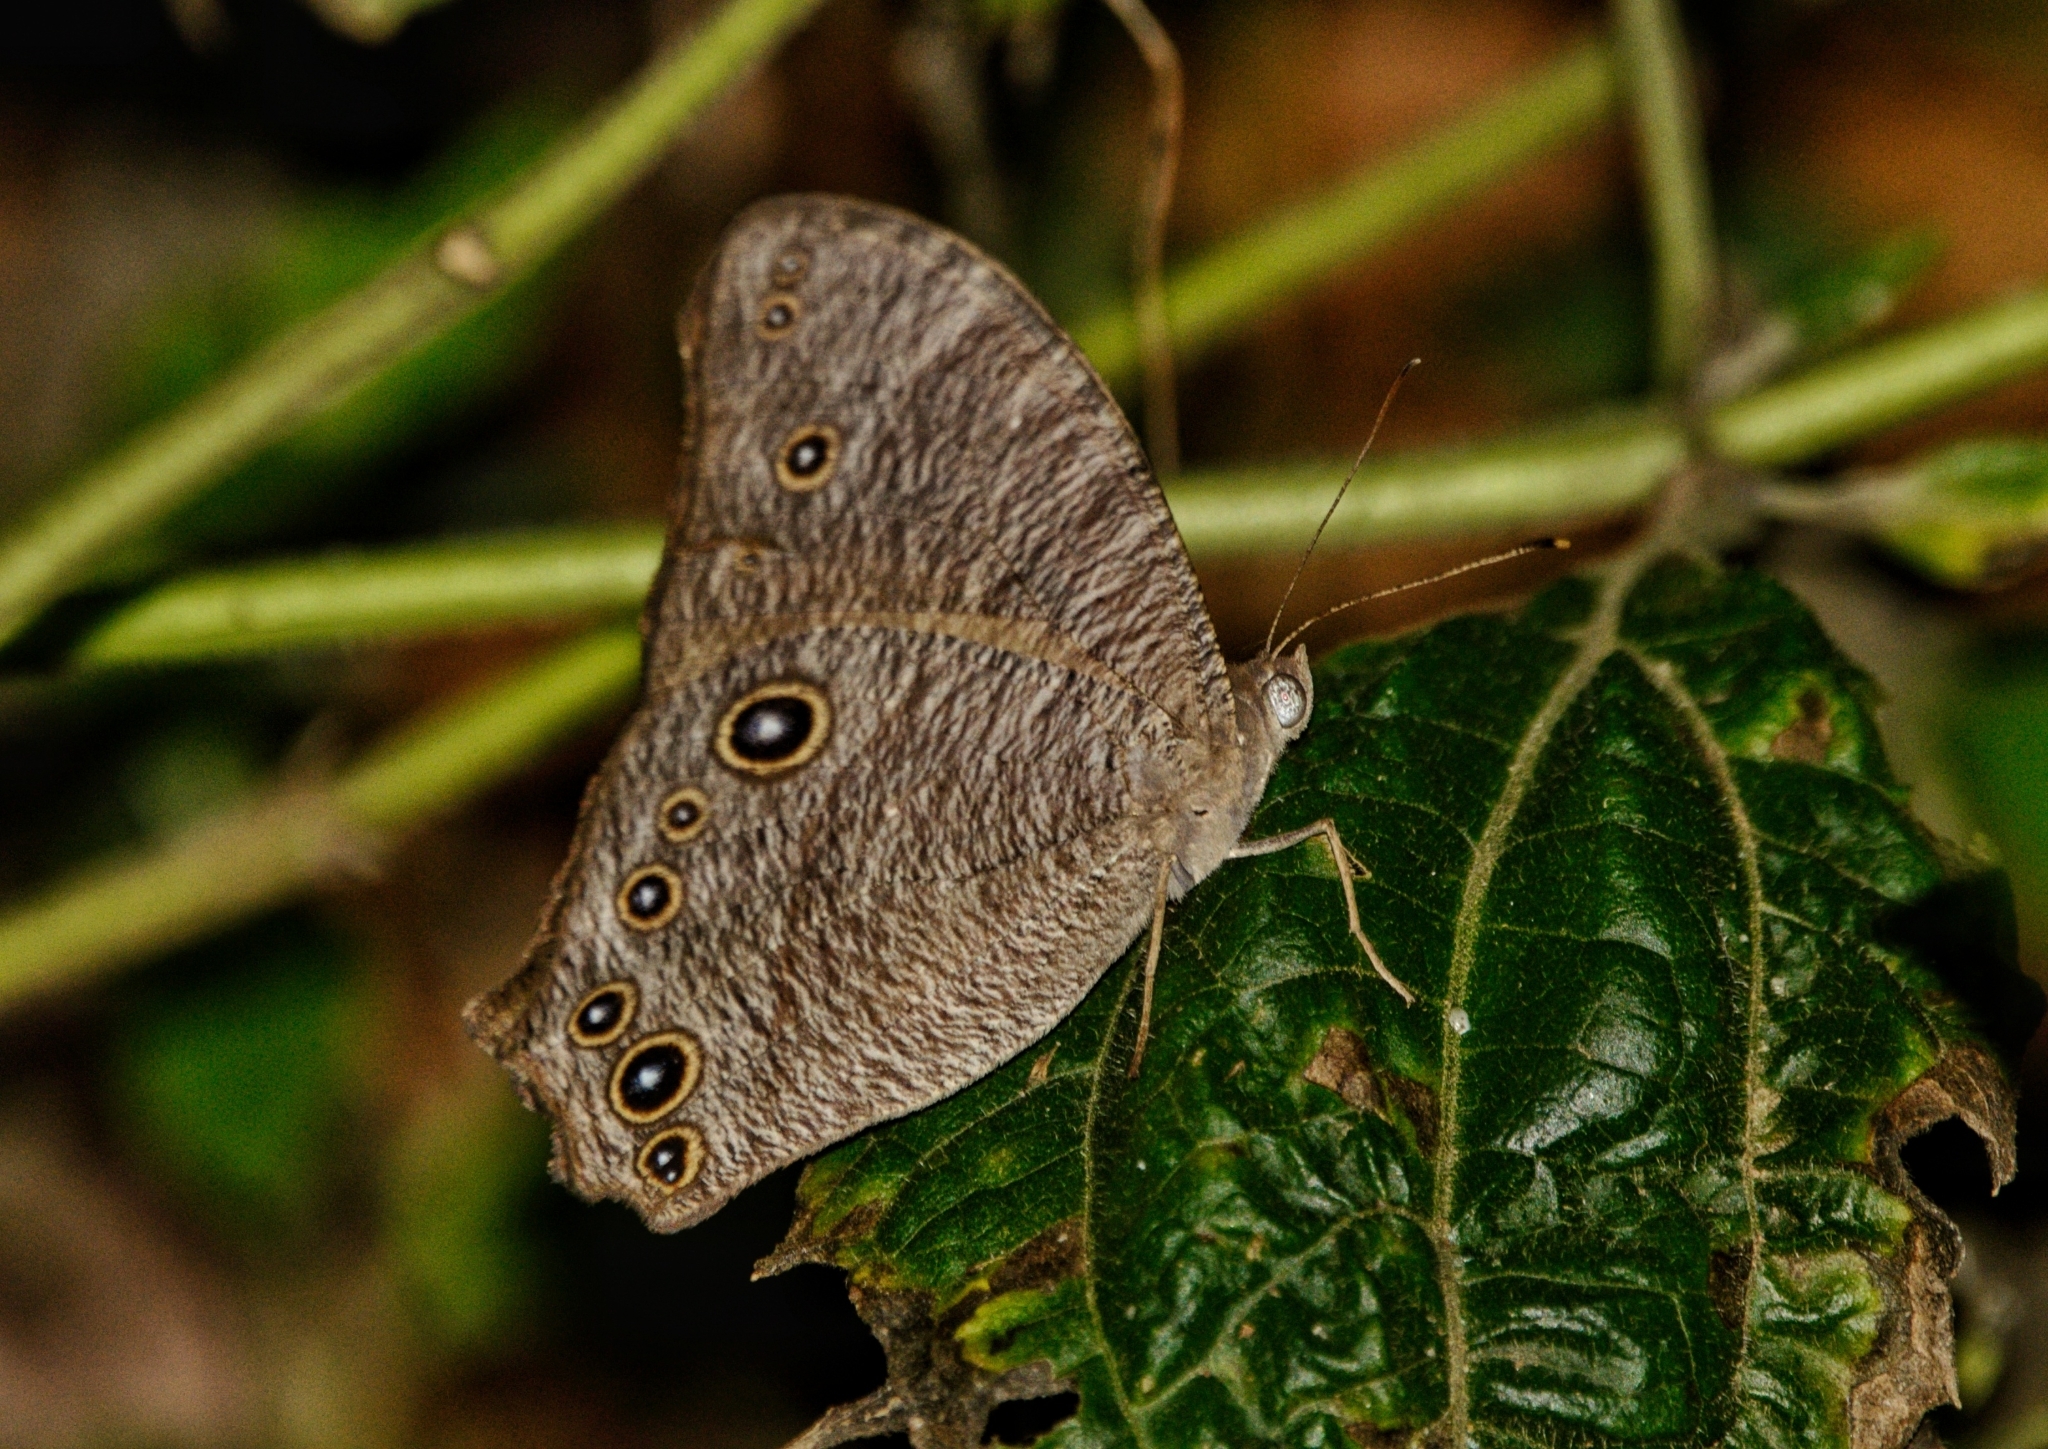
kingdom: Animalia
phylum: Arthropoda
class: Insecta
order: Lepidoptera
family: Nymphalidae
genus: Melanitis
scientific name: Melanitis leda
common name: Twilight brown
